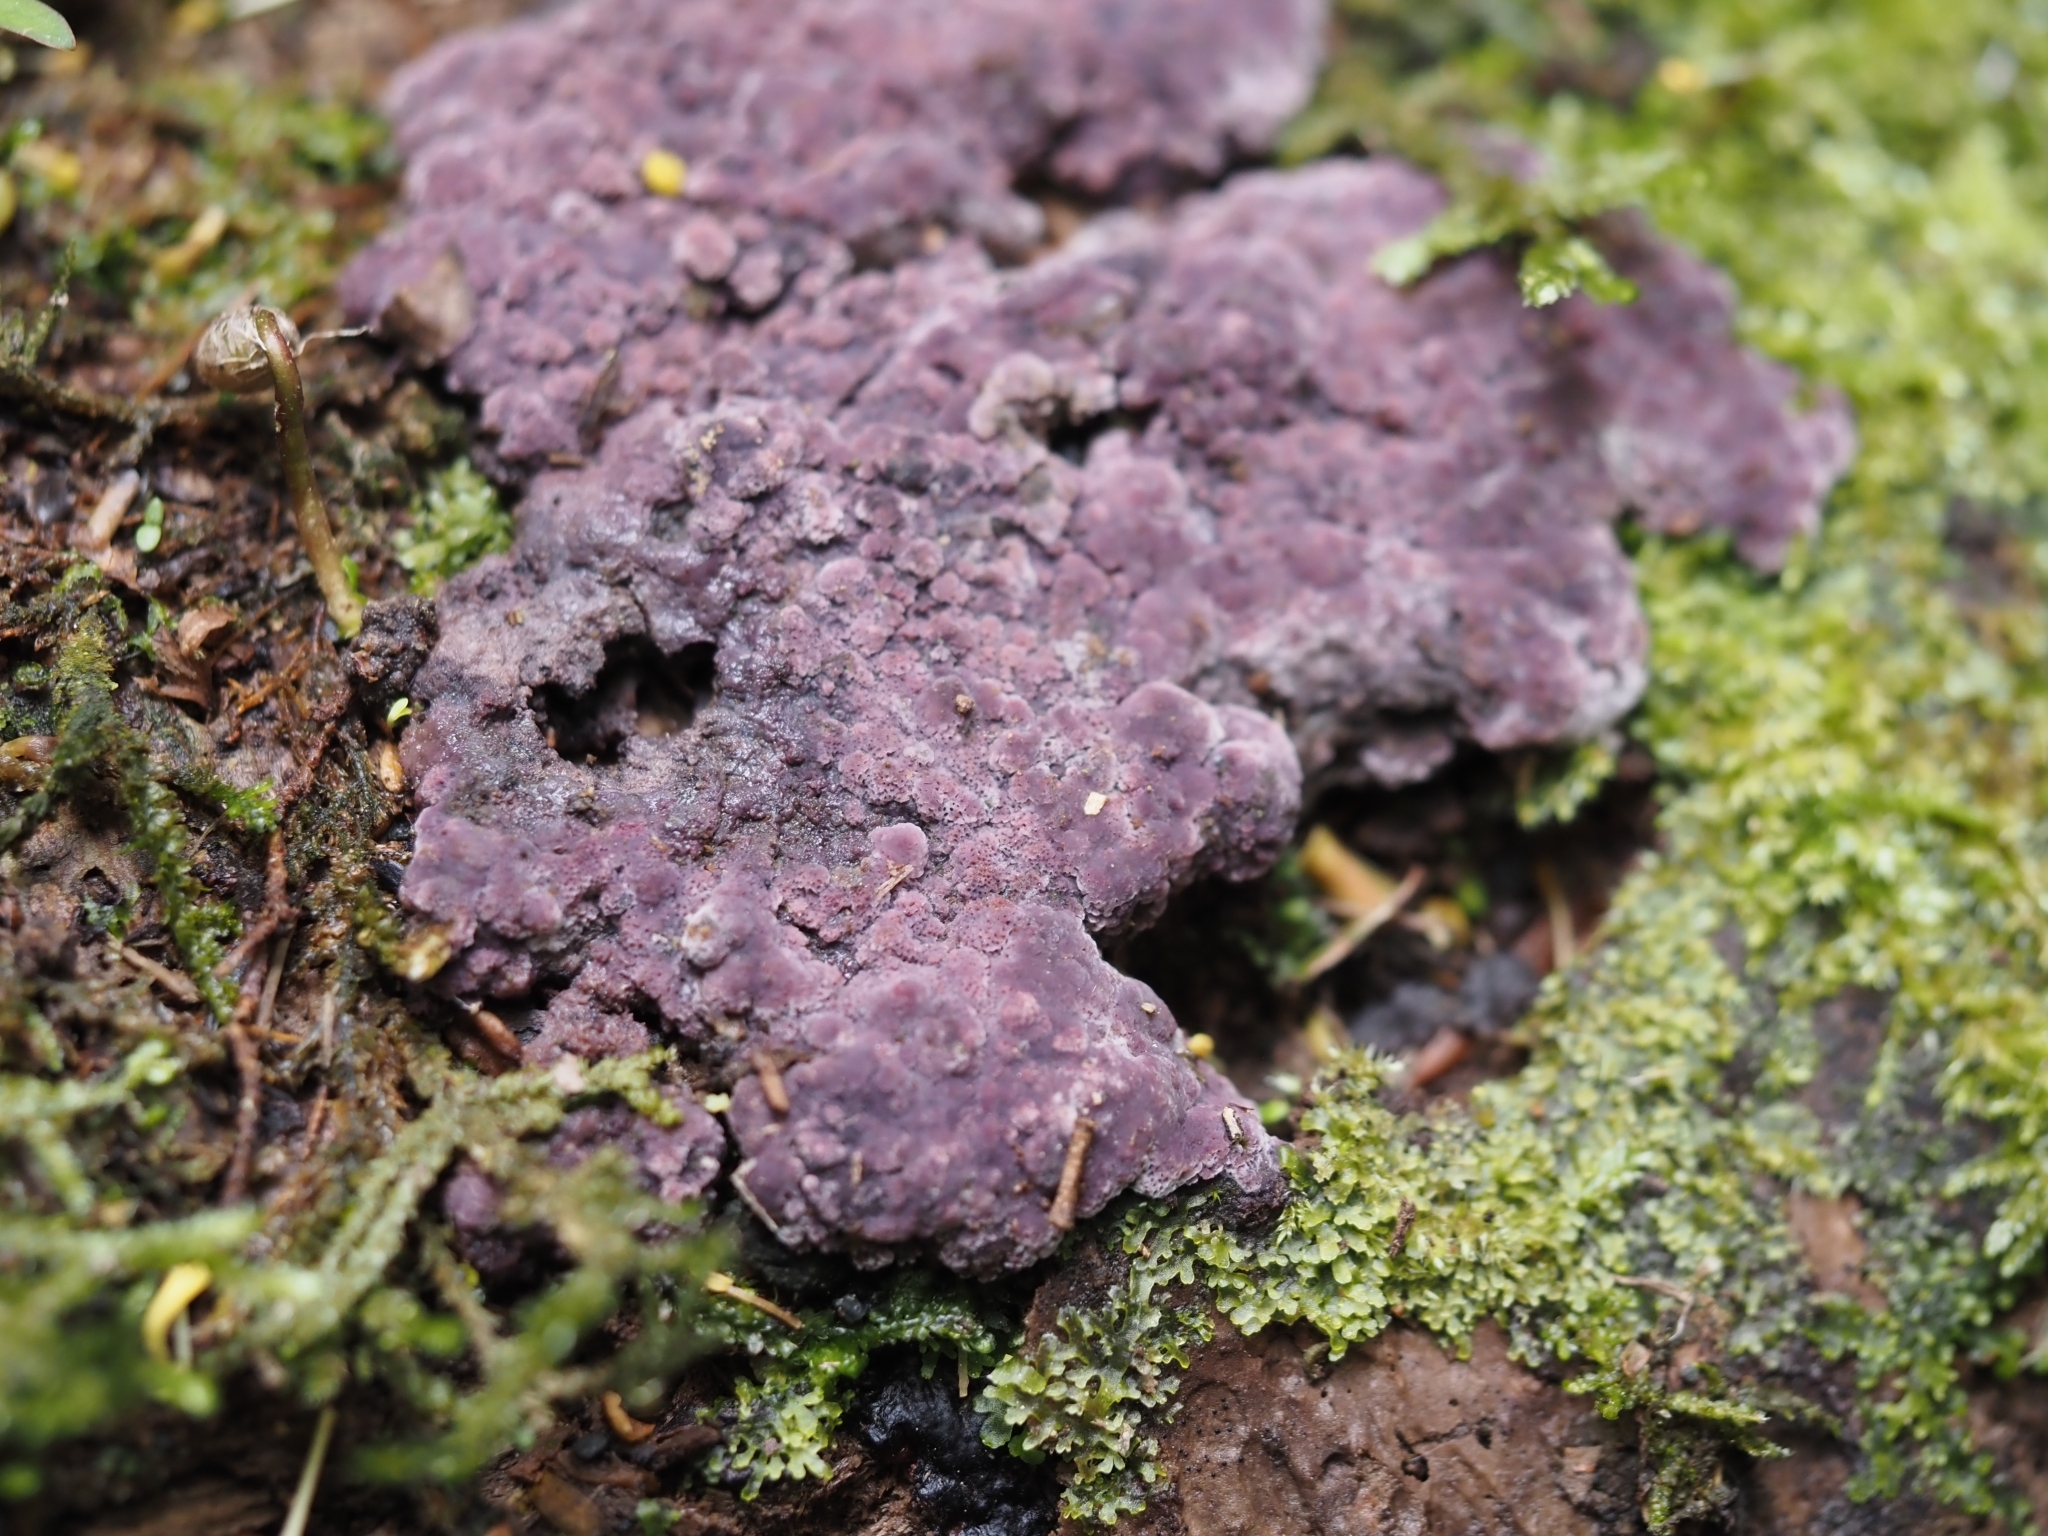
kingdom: Fungi
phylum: Basidiomycota
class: Agaricomycetes
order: Polyporales
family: Irpicaceae
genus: Byssomerulius
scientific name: Byssomerulius psittacinus
